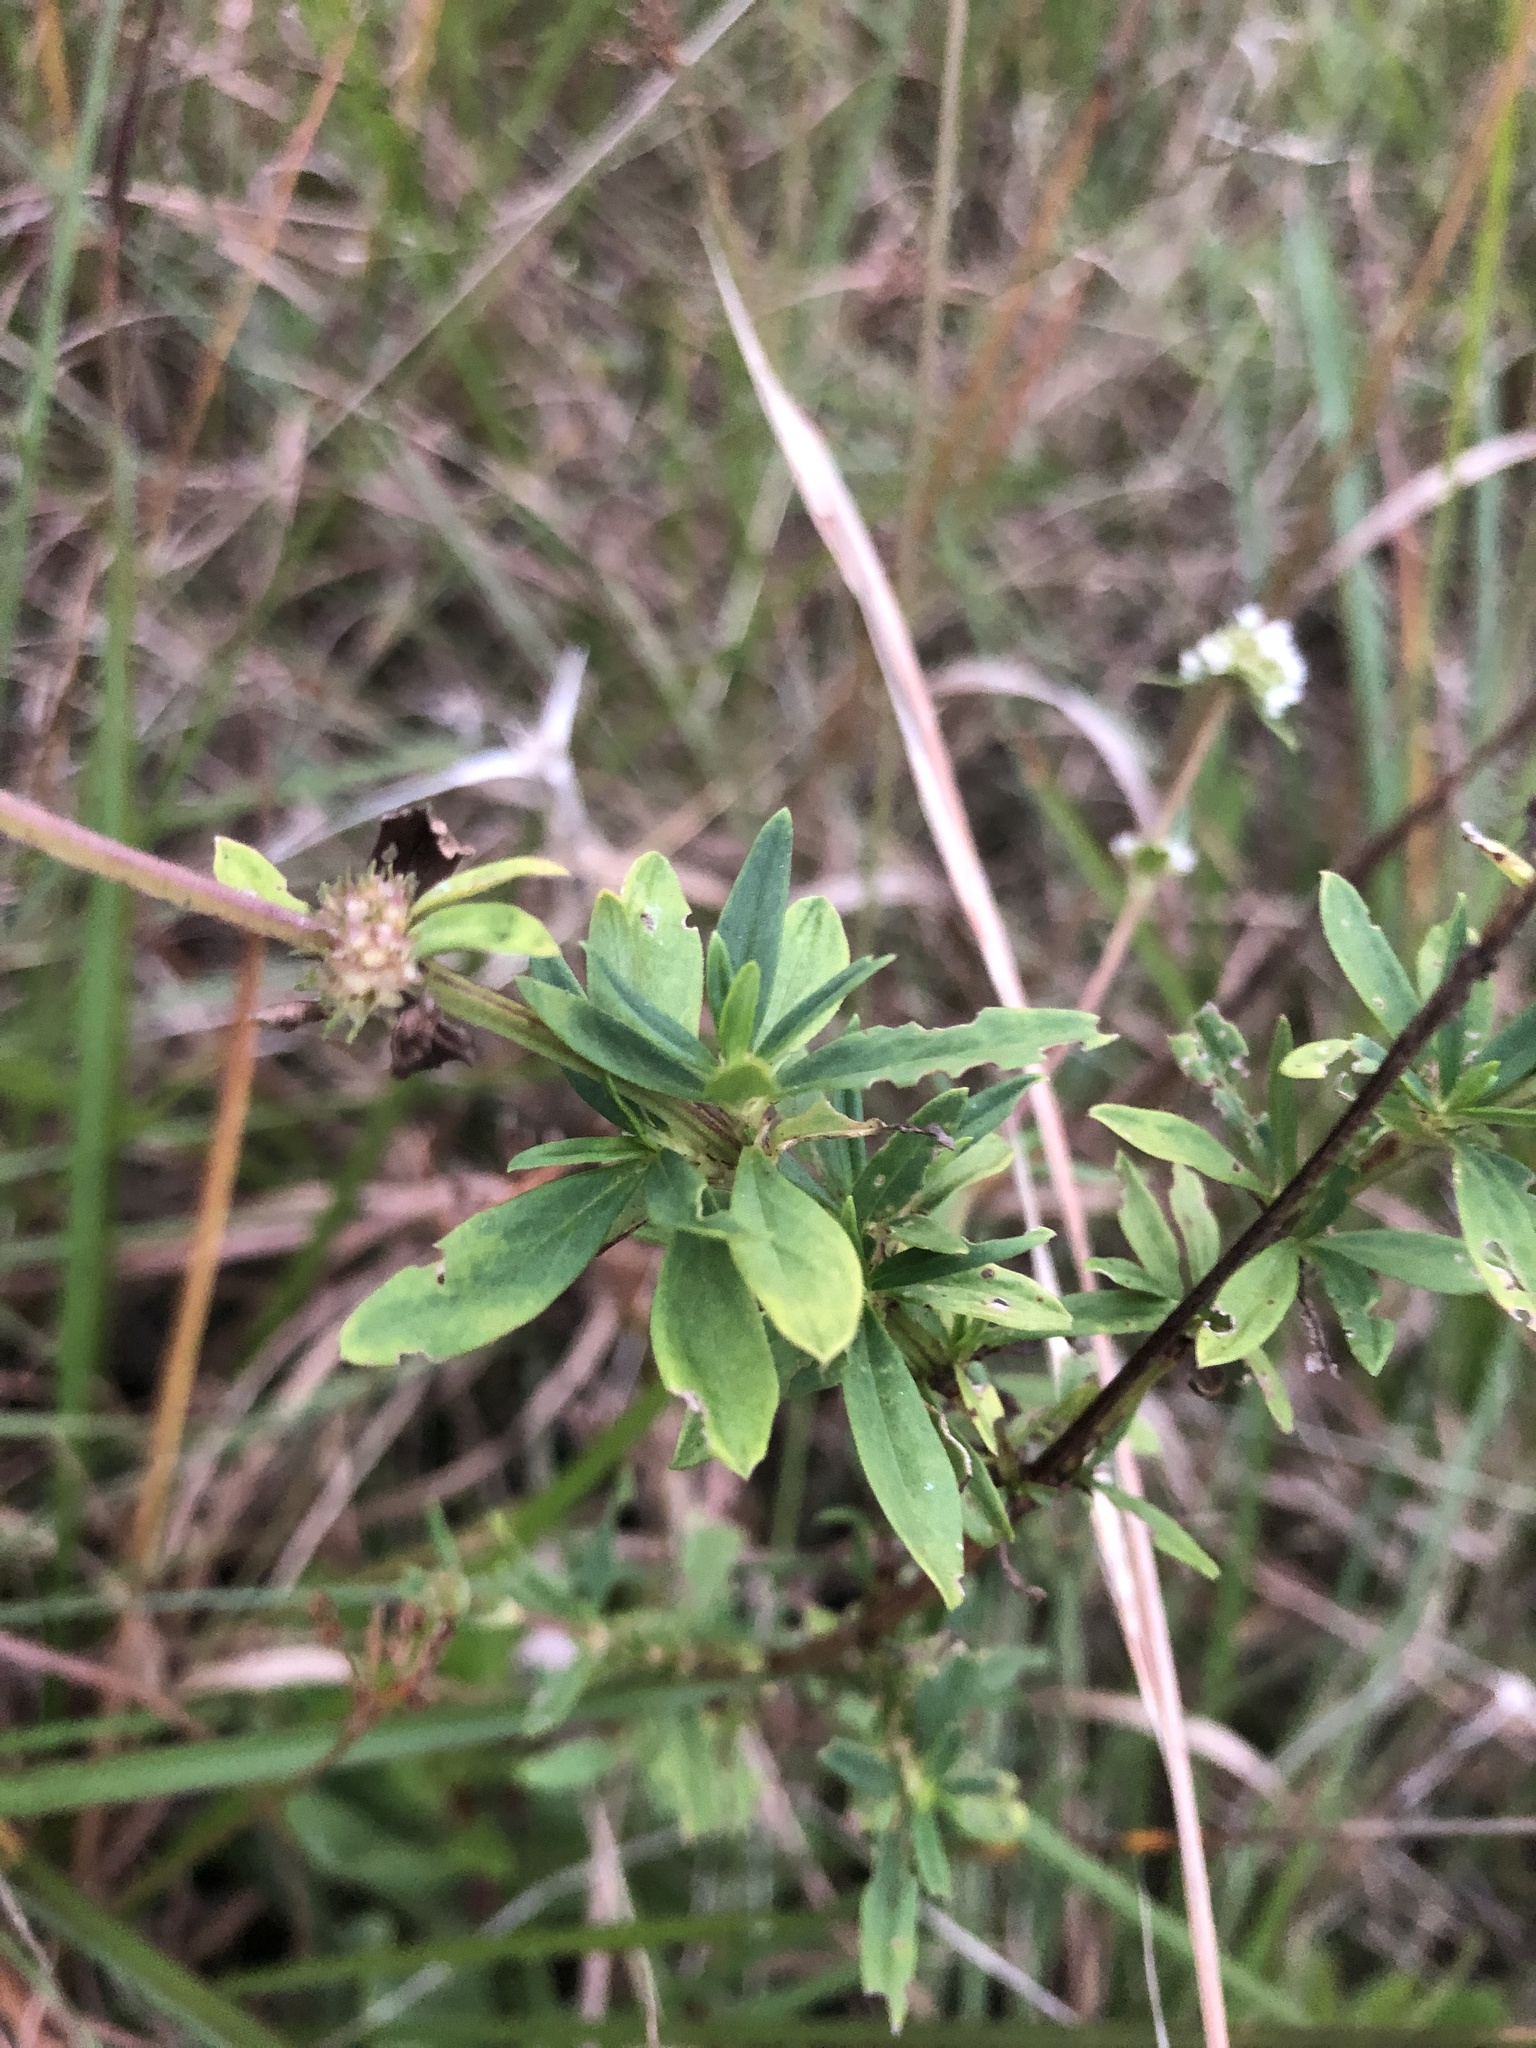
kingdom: Plantae
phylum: Tracheophyta
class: Magnoliopsida
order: Gentianales
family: Rubiaceae
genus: Spermacoce
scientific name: Spermacoce verticillata
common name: Shrubby false buttonweed
